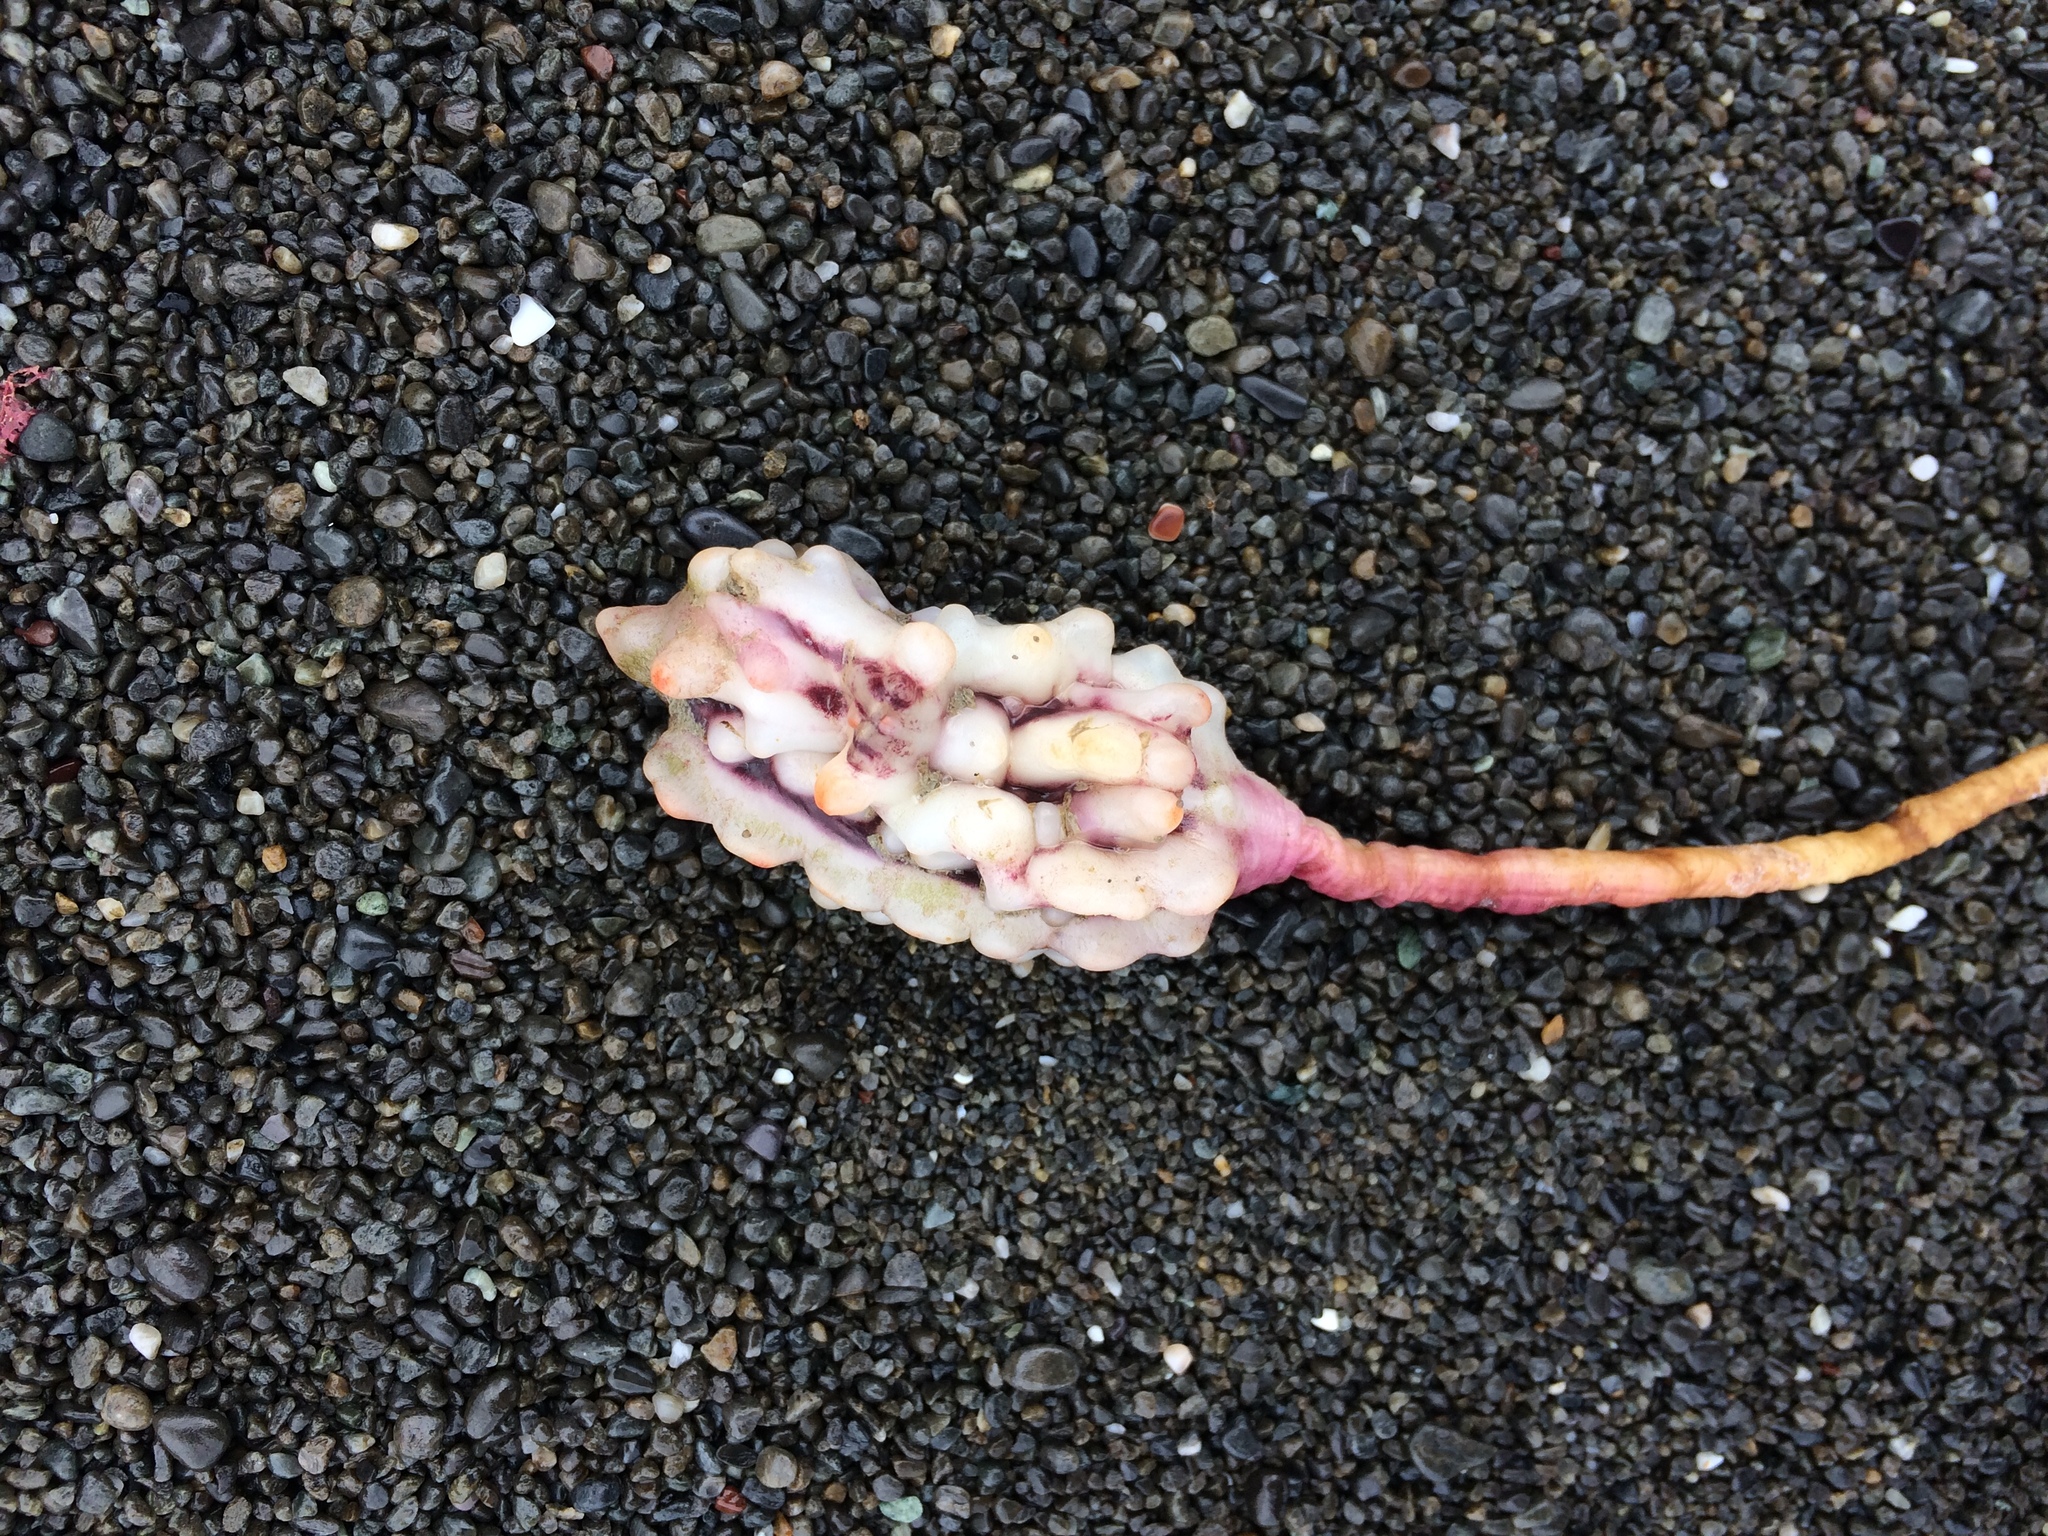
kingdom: Animalia
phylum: Chordata
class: Ascidiacea
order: Stolidobranchia
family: Pyuridae
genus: Pyura
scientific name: Pyura pachydermatina
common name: Sea tulip
